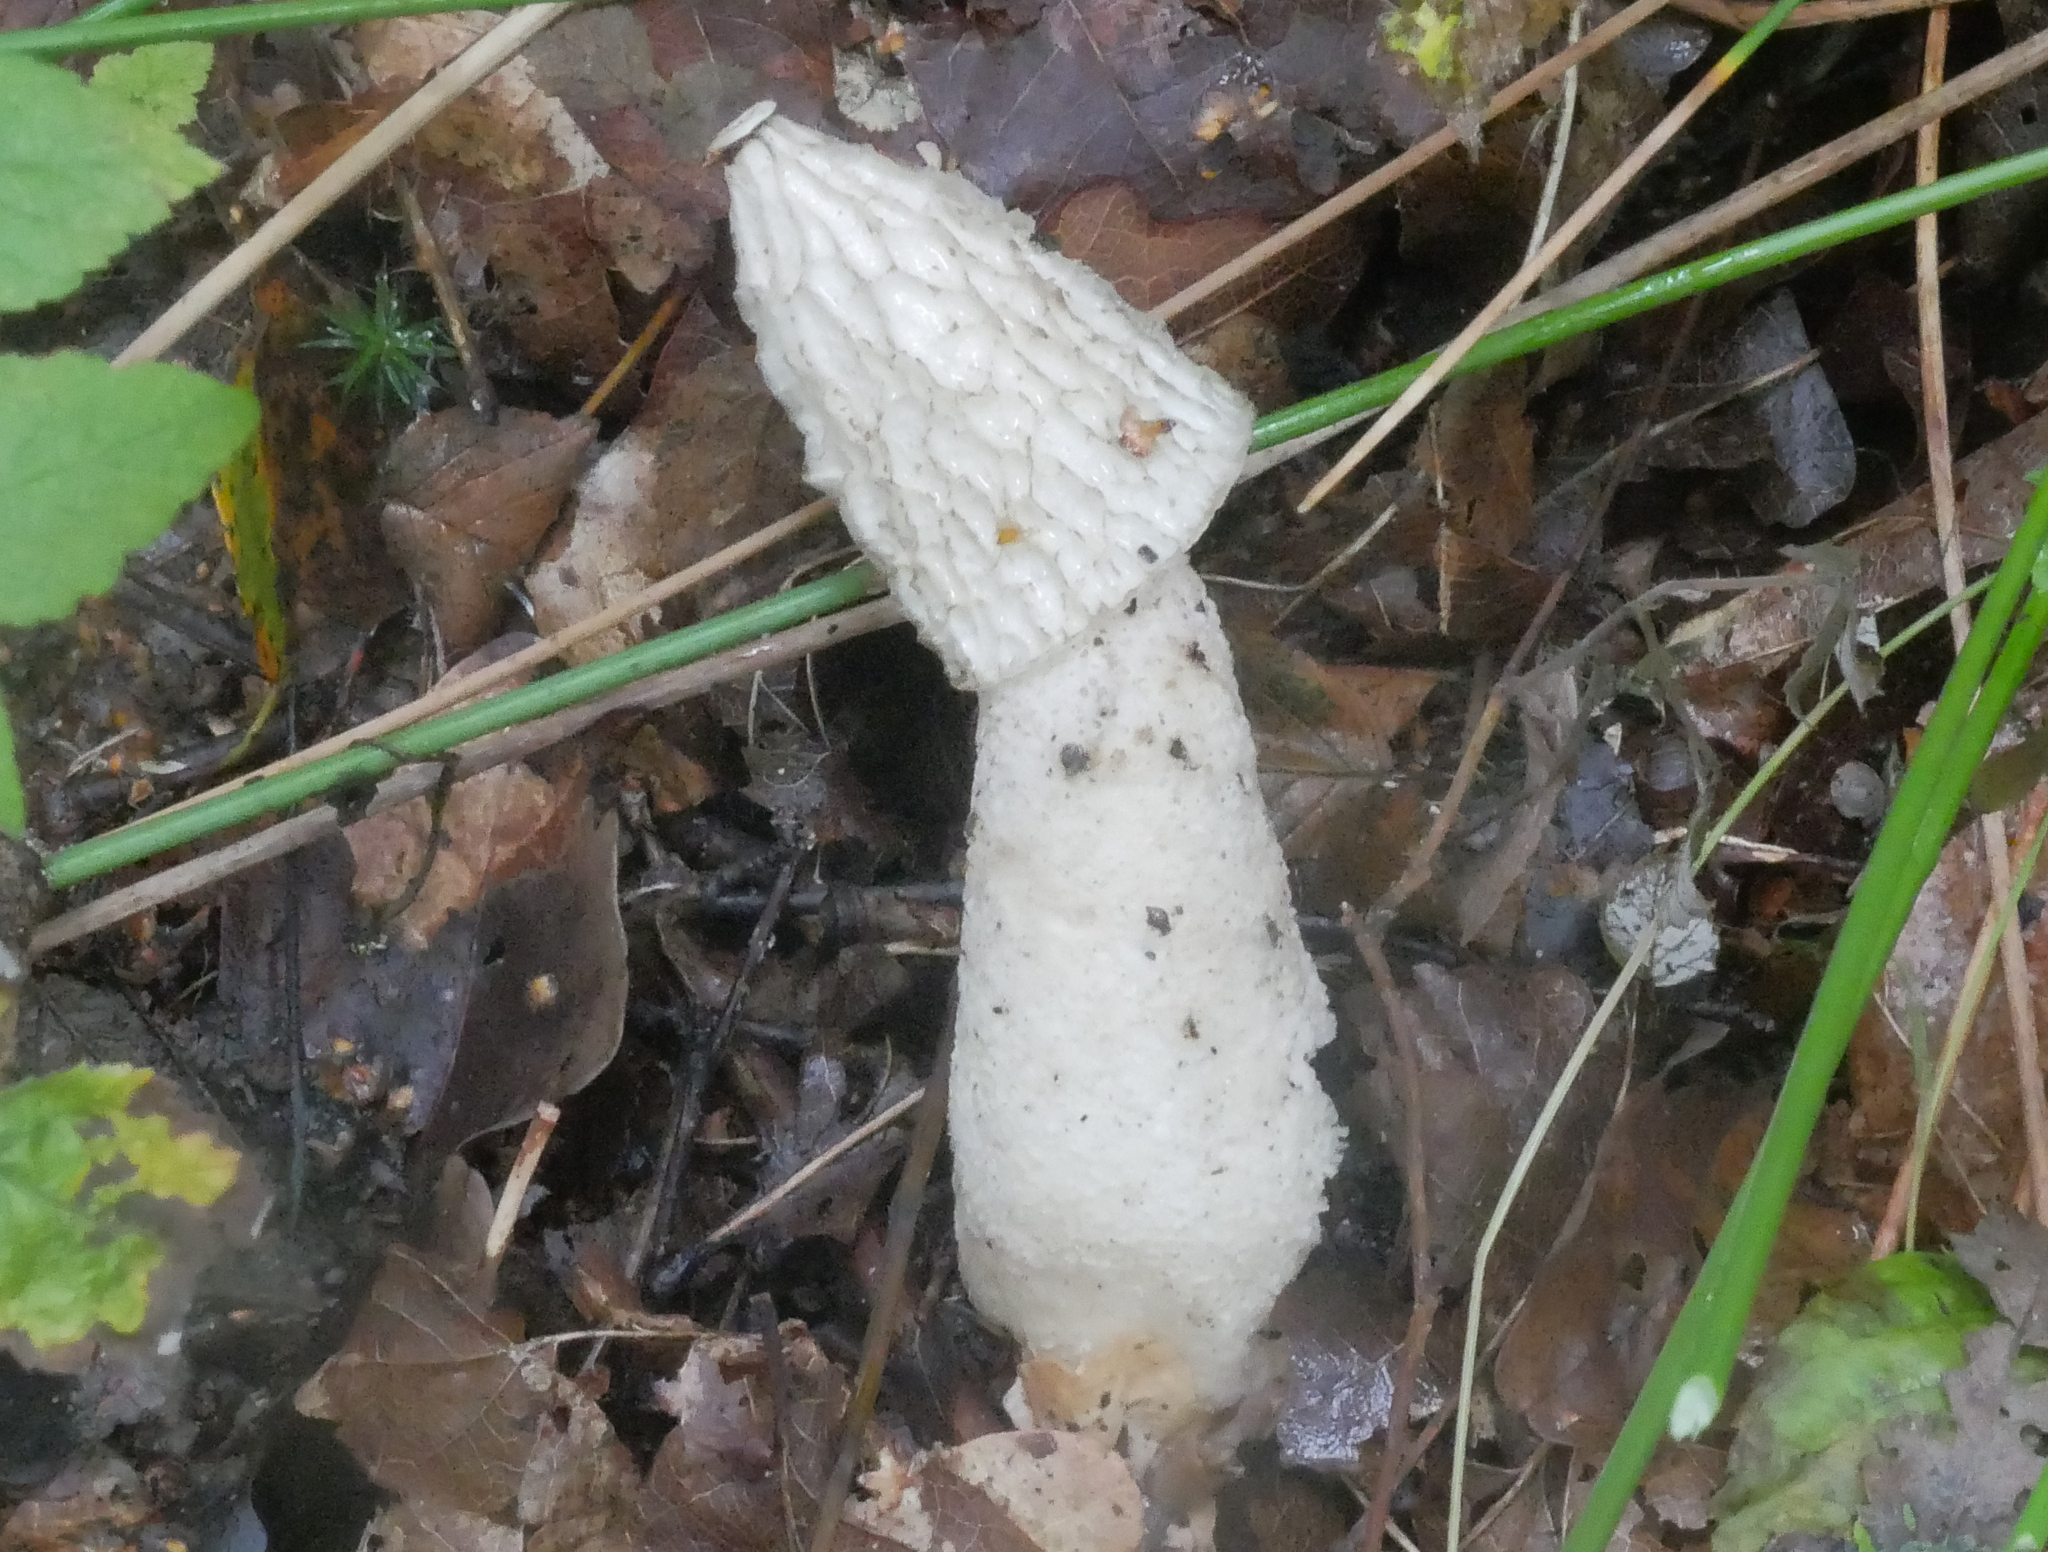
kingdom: Fungi
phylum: Basidiomycota
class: Agaricomycetes
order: Phallales
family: Phallaceae
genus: Phallus
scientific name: Phallus impudicus
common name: Common stinkhorn
